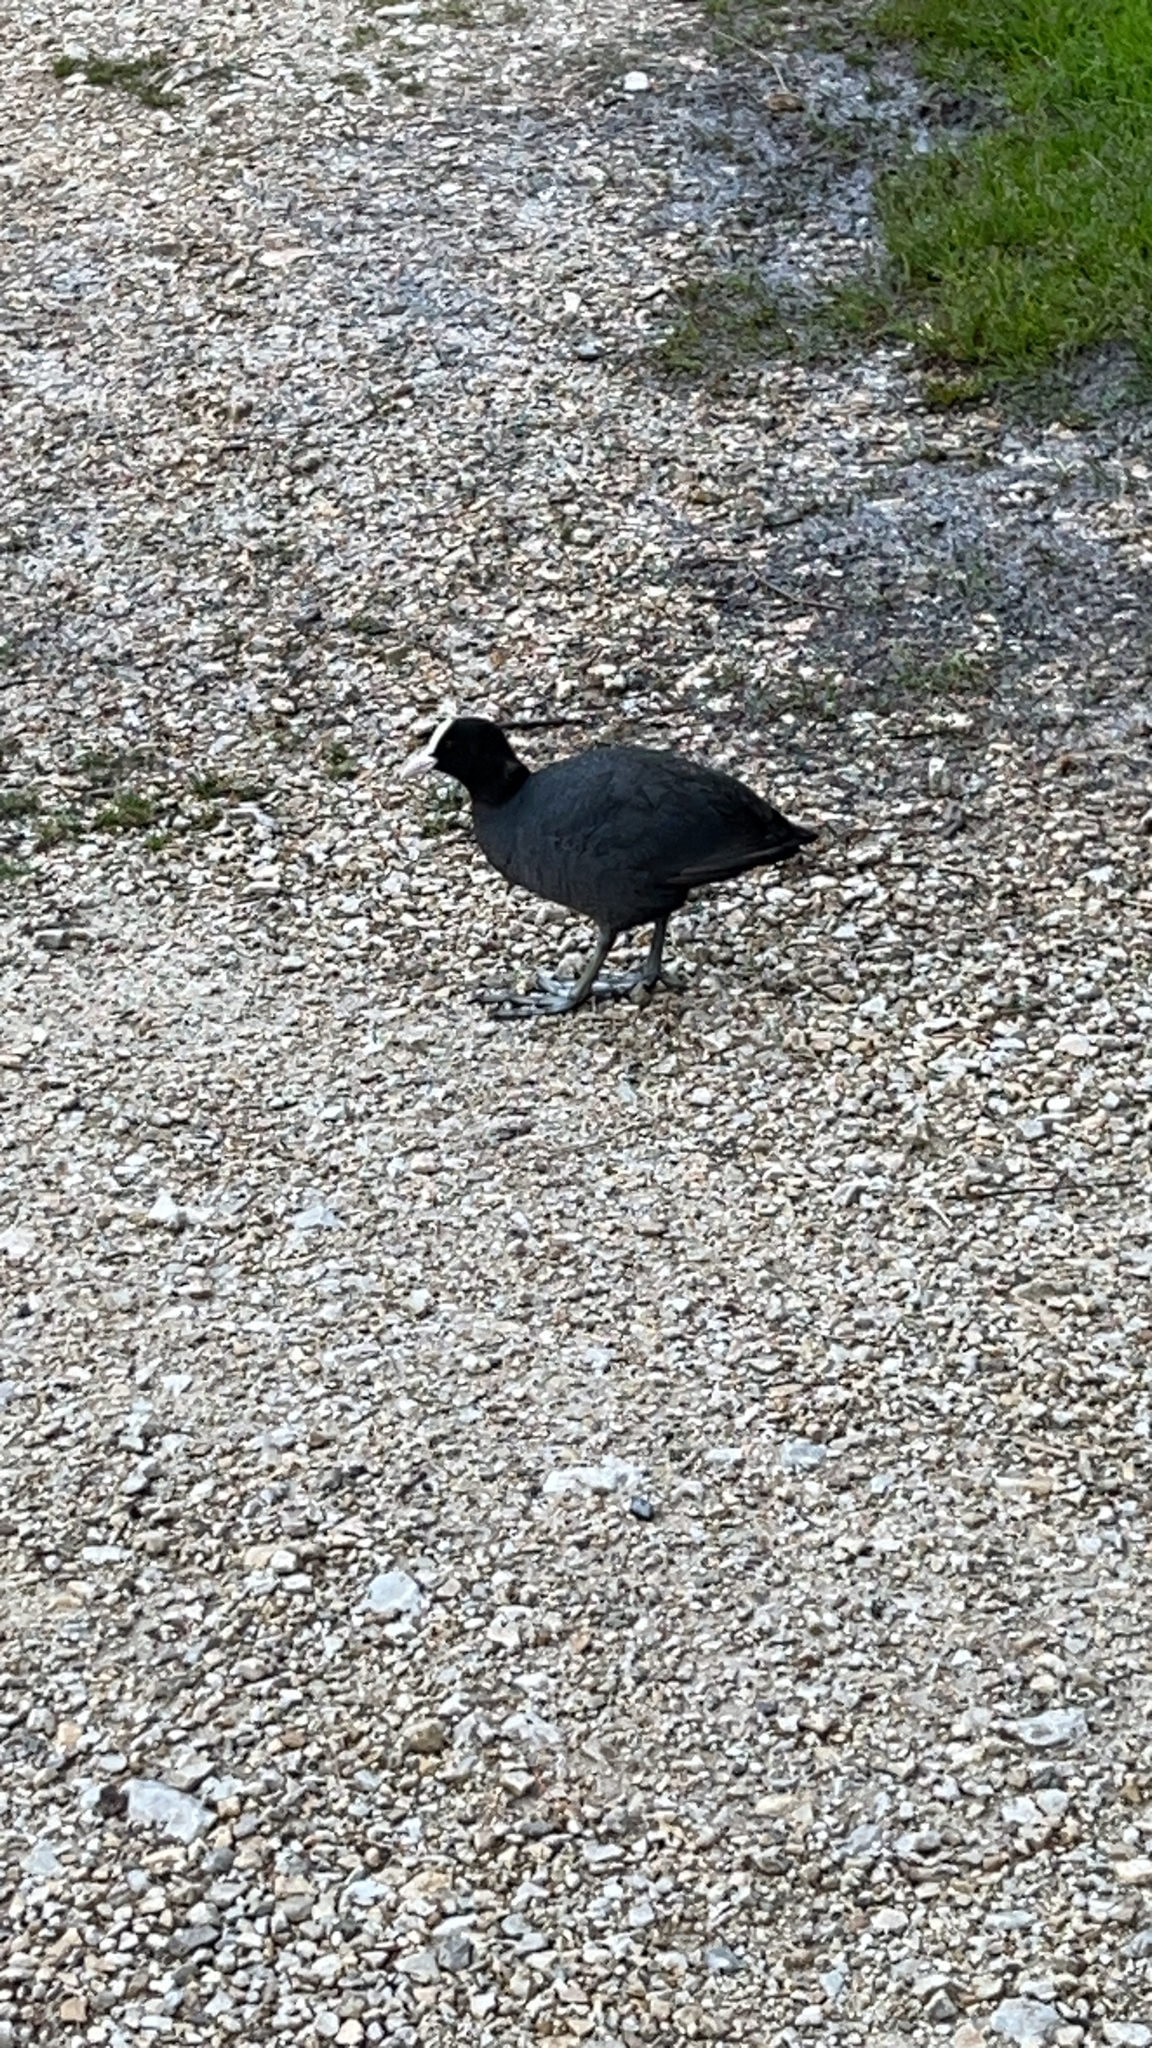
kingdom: Animalia
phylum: Chordata
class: Aves
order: Gruiformes
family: Rallidae
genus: Fulica
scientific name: Fulica atra
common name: Eurasian coot
